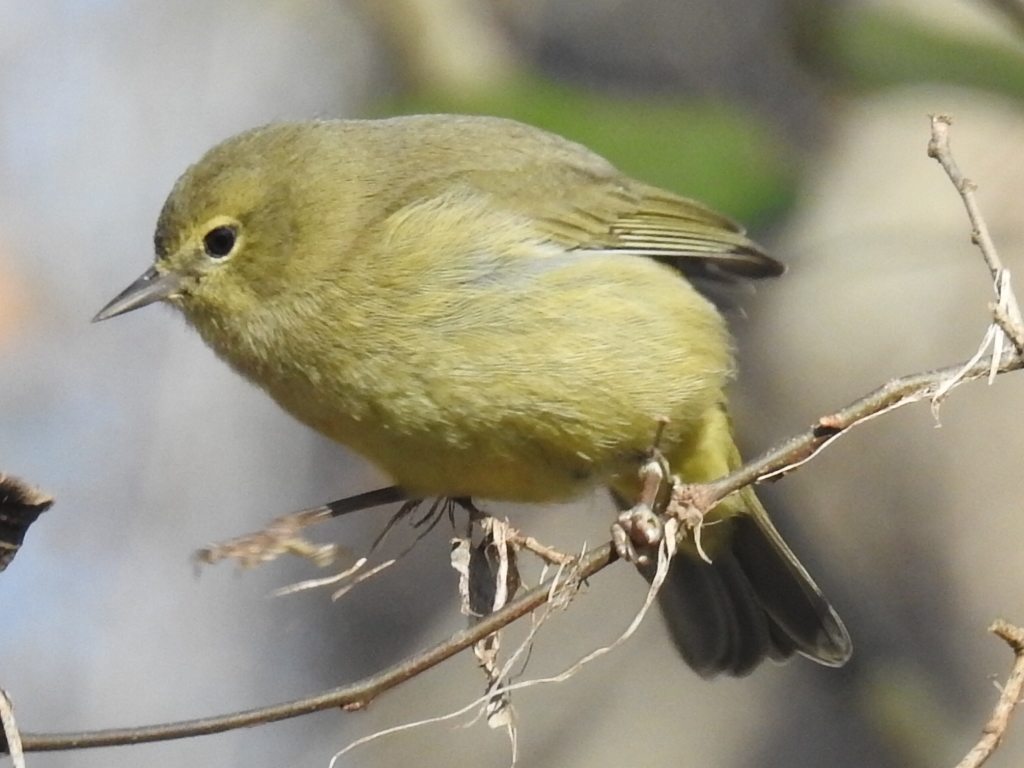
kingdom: Animalia
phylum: Chordata
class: Aves
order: Passeriformes
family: Parulidae
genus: Leiothlypis
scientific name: Leiothlypis celata
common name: Orange-crowned warbler
